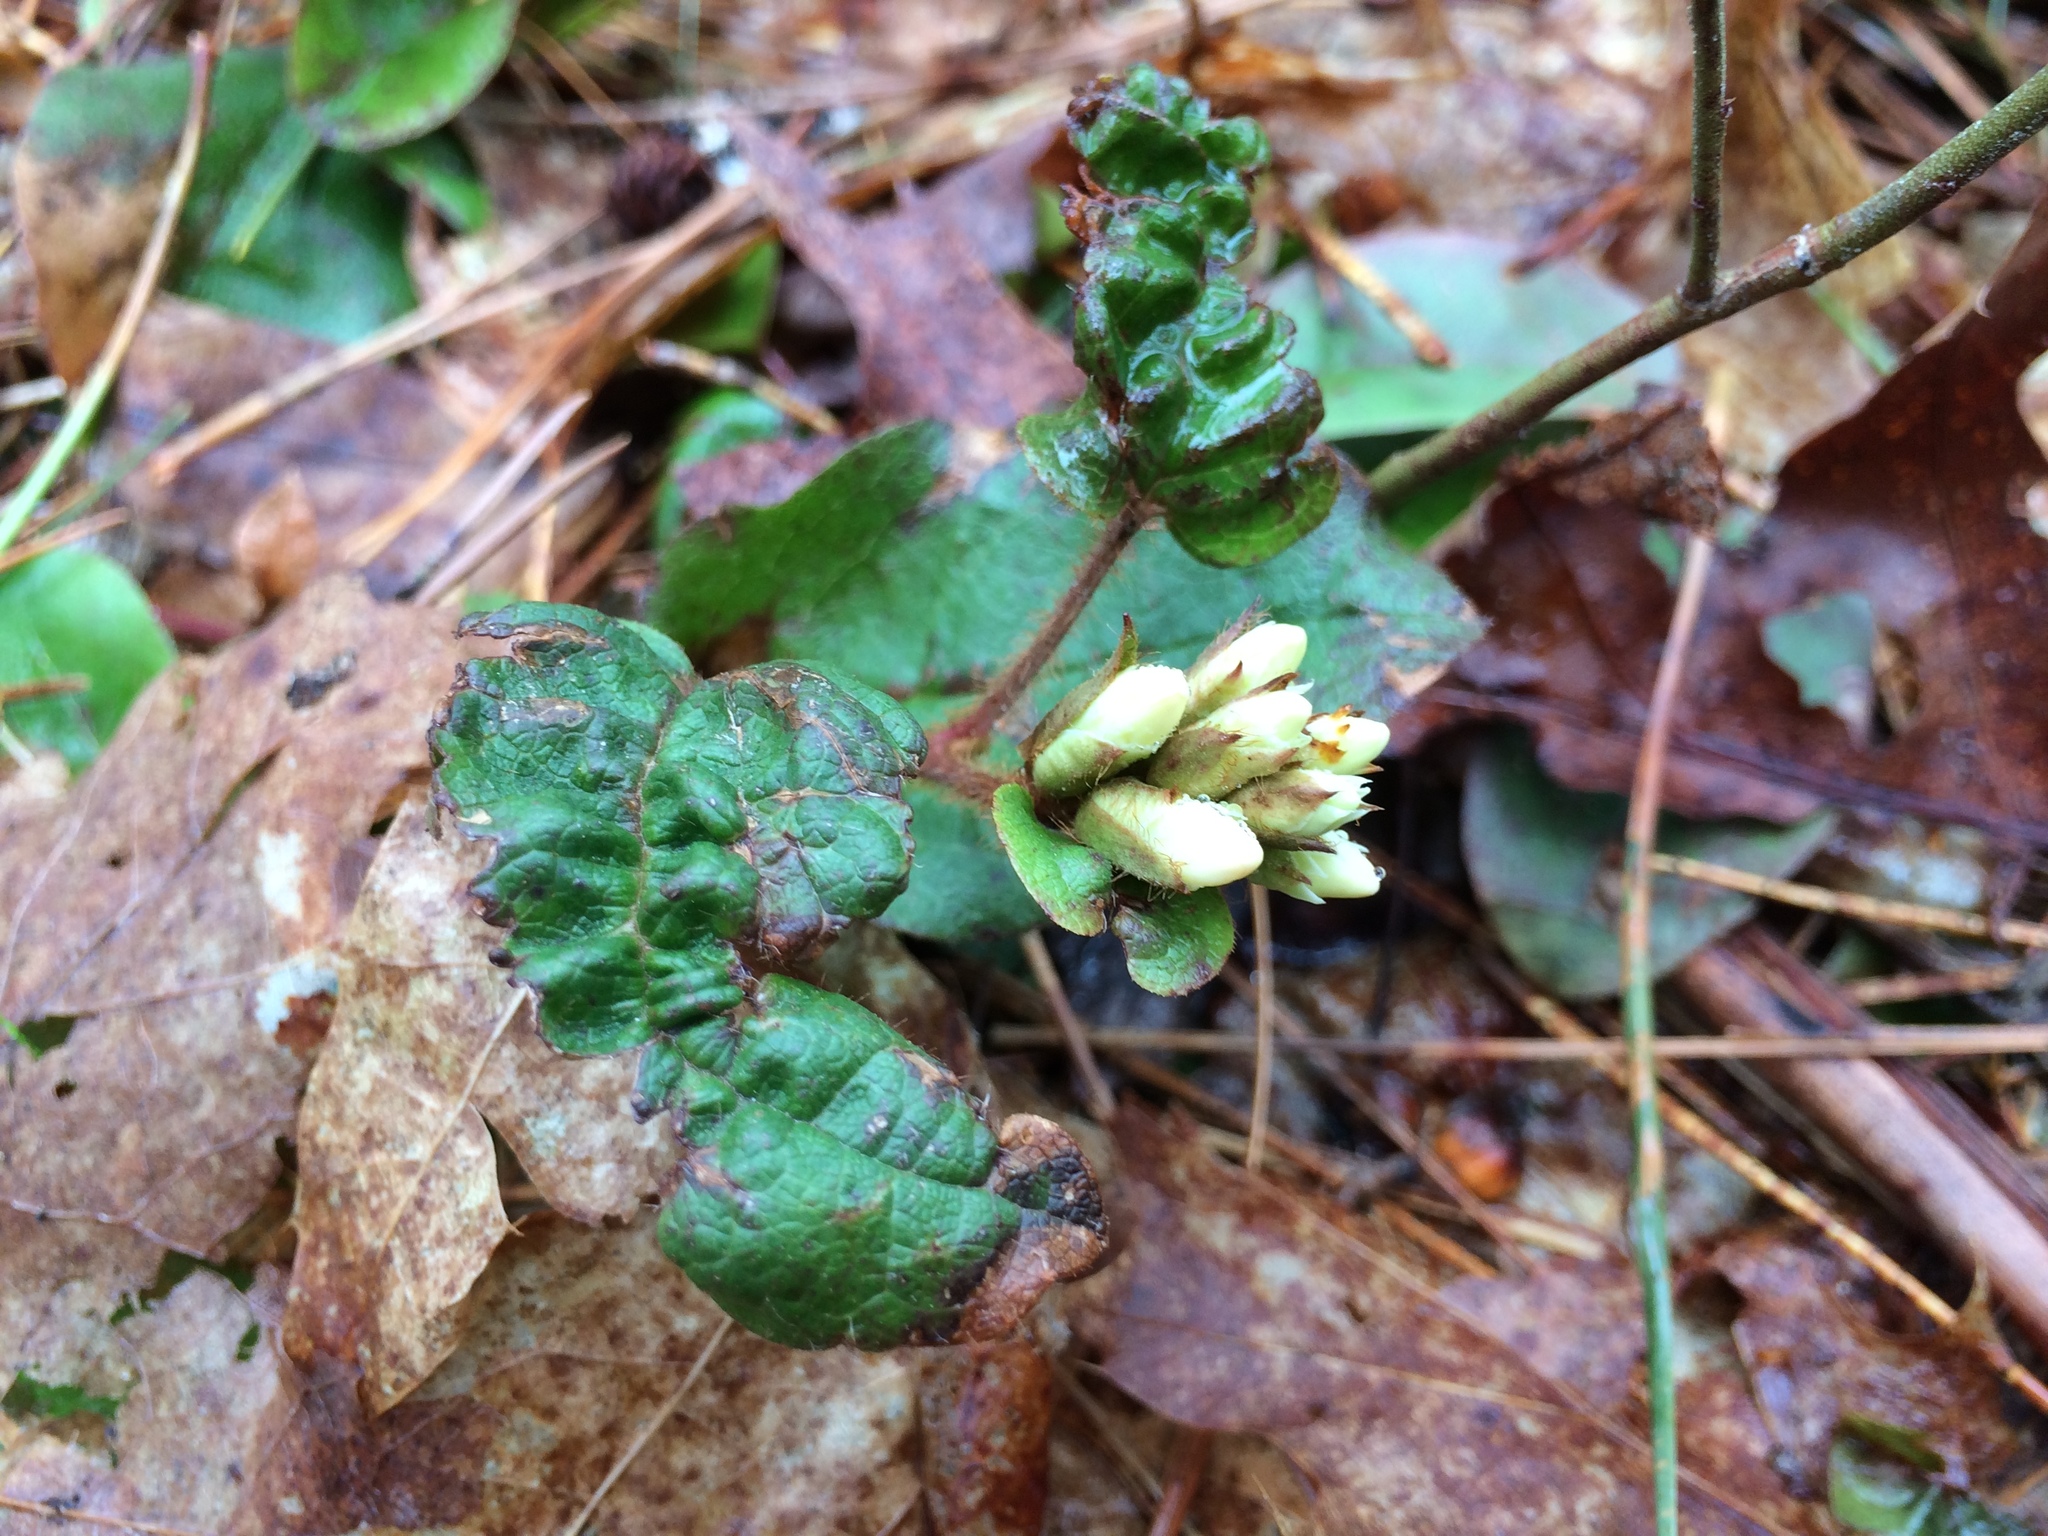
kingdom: Plantae
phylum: Tracheophyta
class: Magnoliopsida
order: Ericales
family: Ericaceae
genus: Epigaea
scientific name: Epigaea repens
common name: Gravelroot
